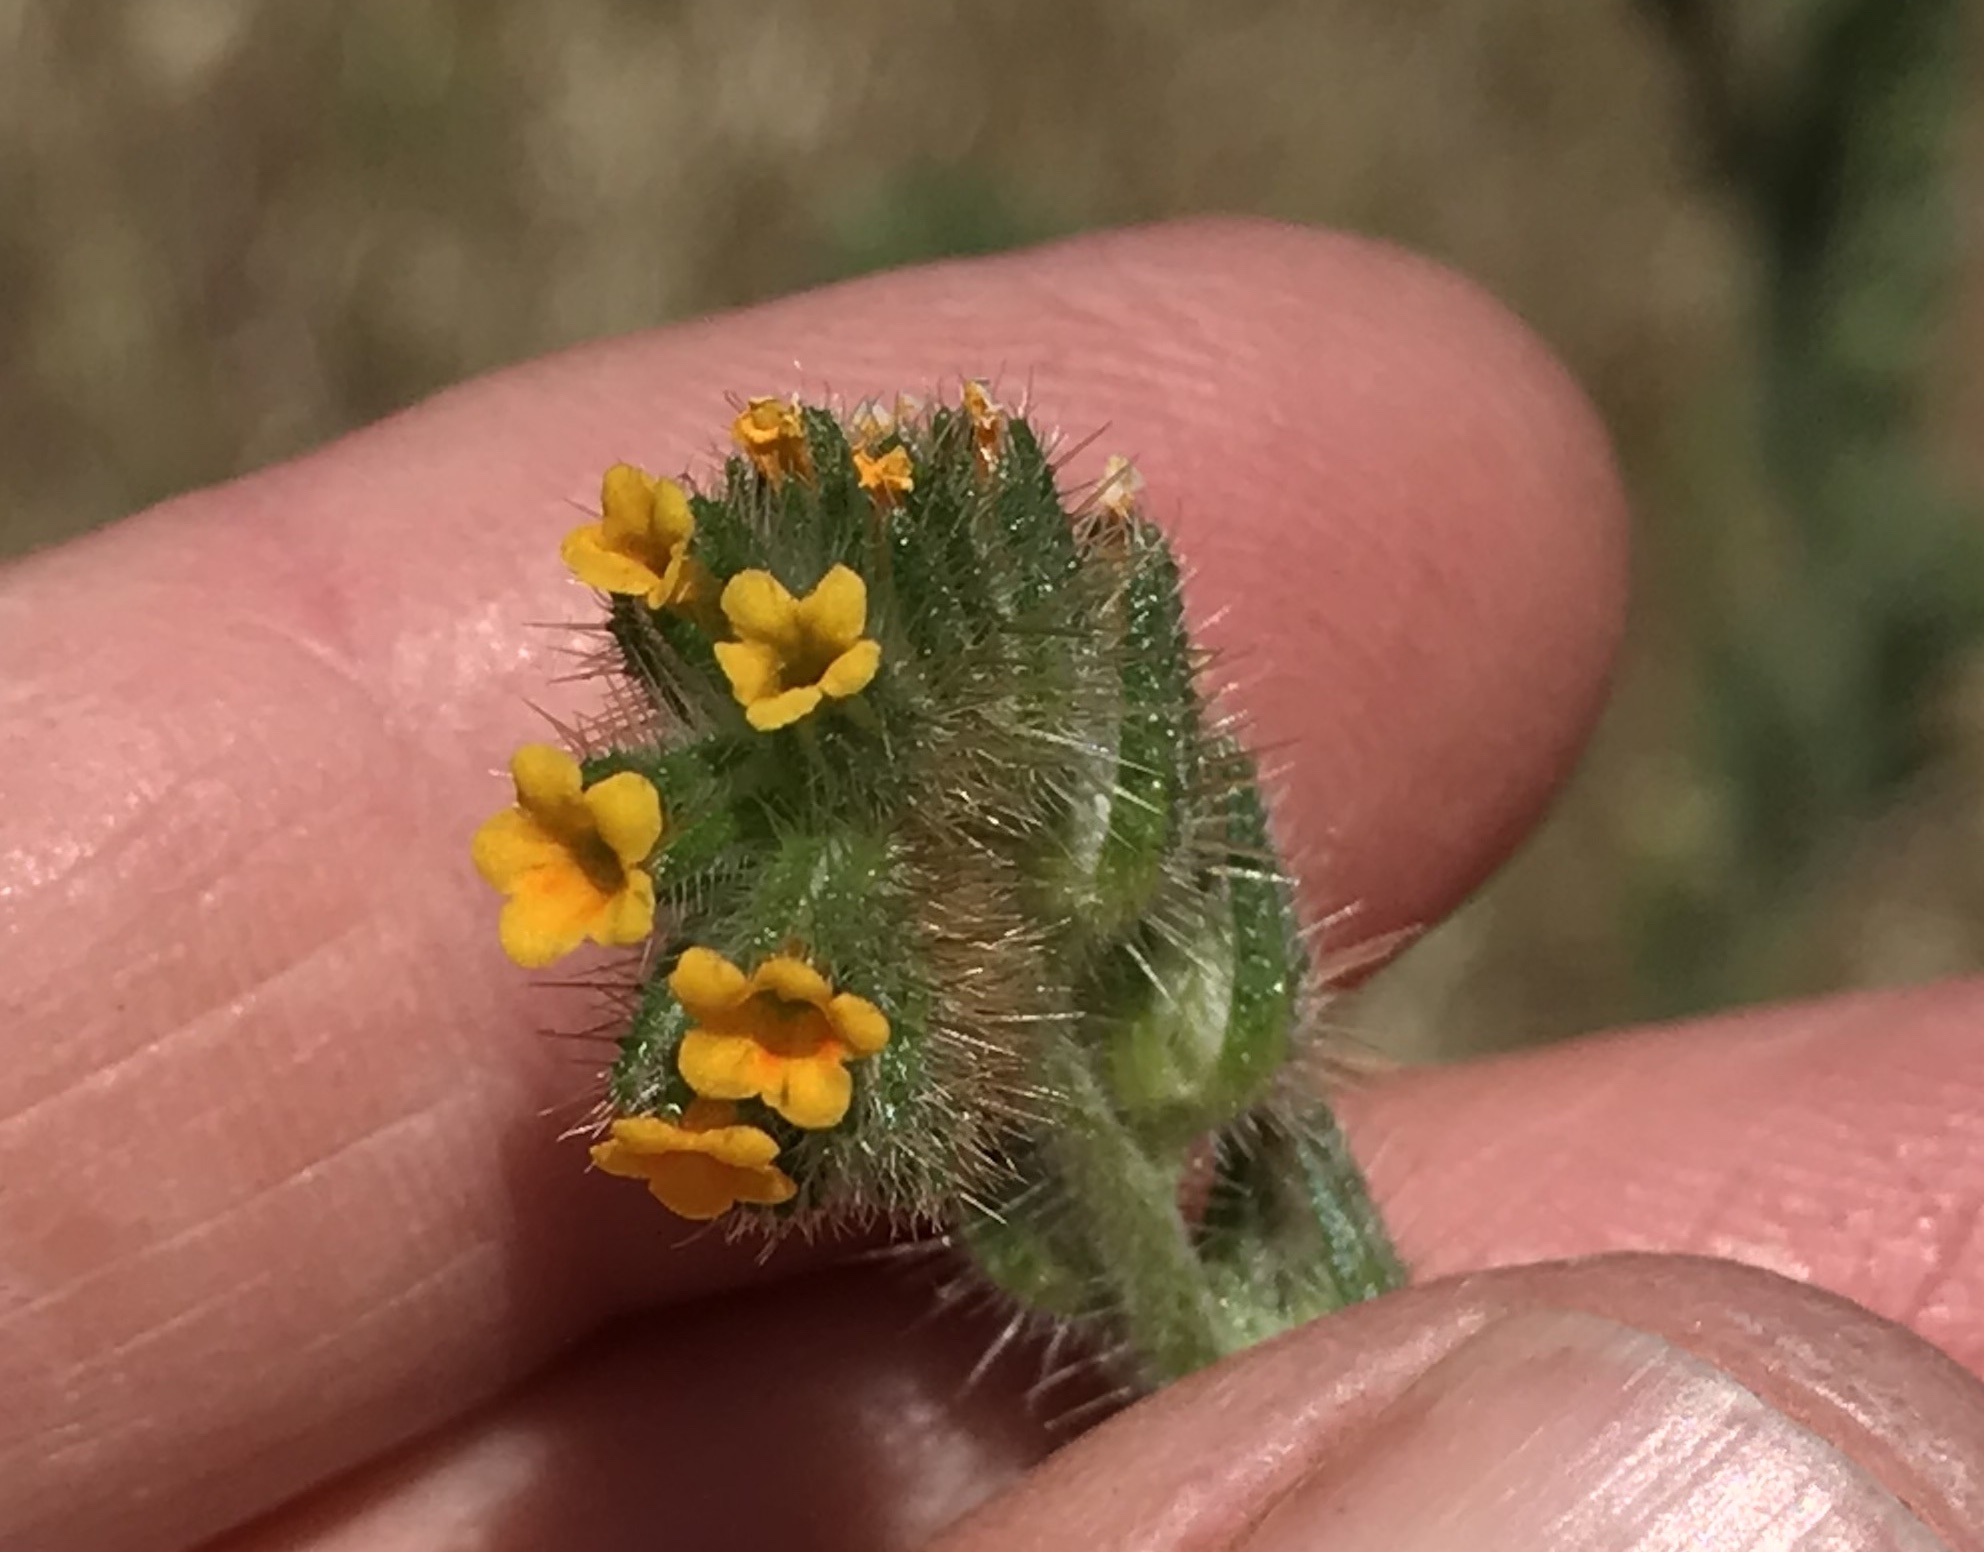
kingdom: Plantae
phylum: Tracheophyta
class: Magnoliopsida
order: Boraginales
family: Boraginaceae
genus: Amsinckia
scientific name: Amsinckia menziesii
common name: Menzies' fiddleneck
